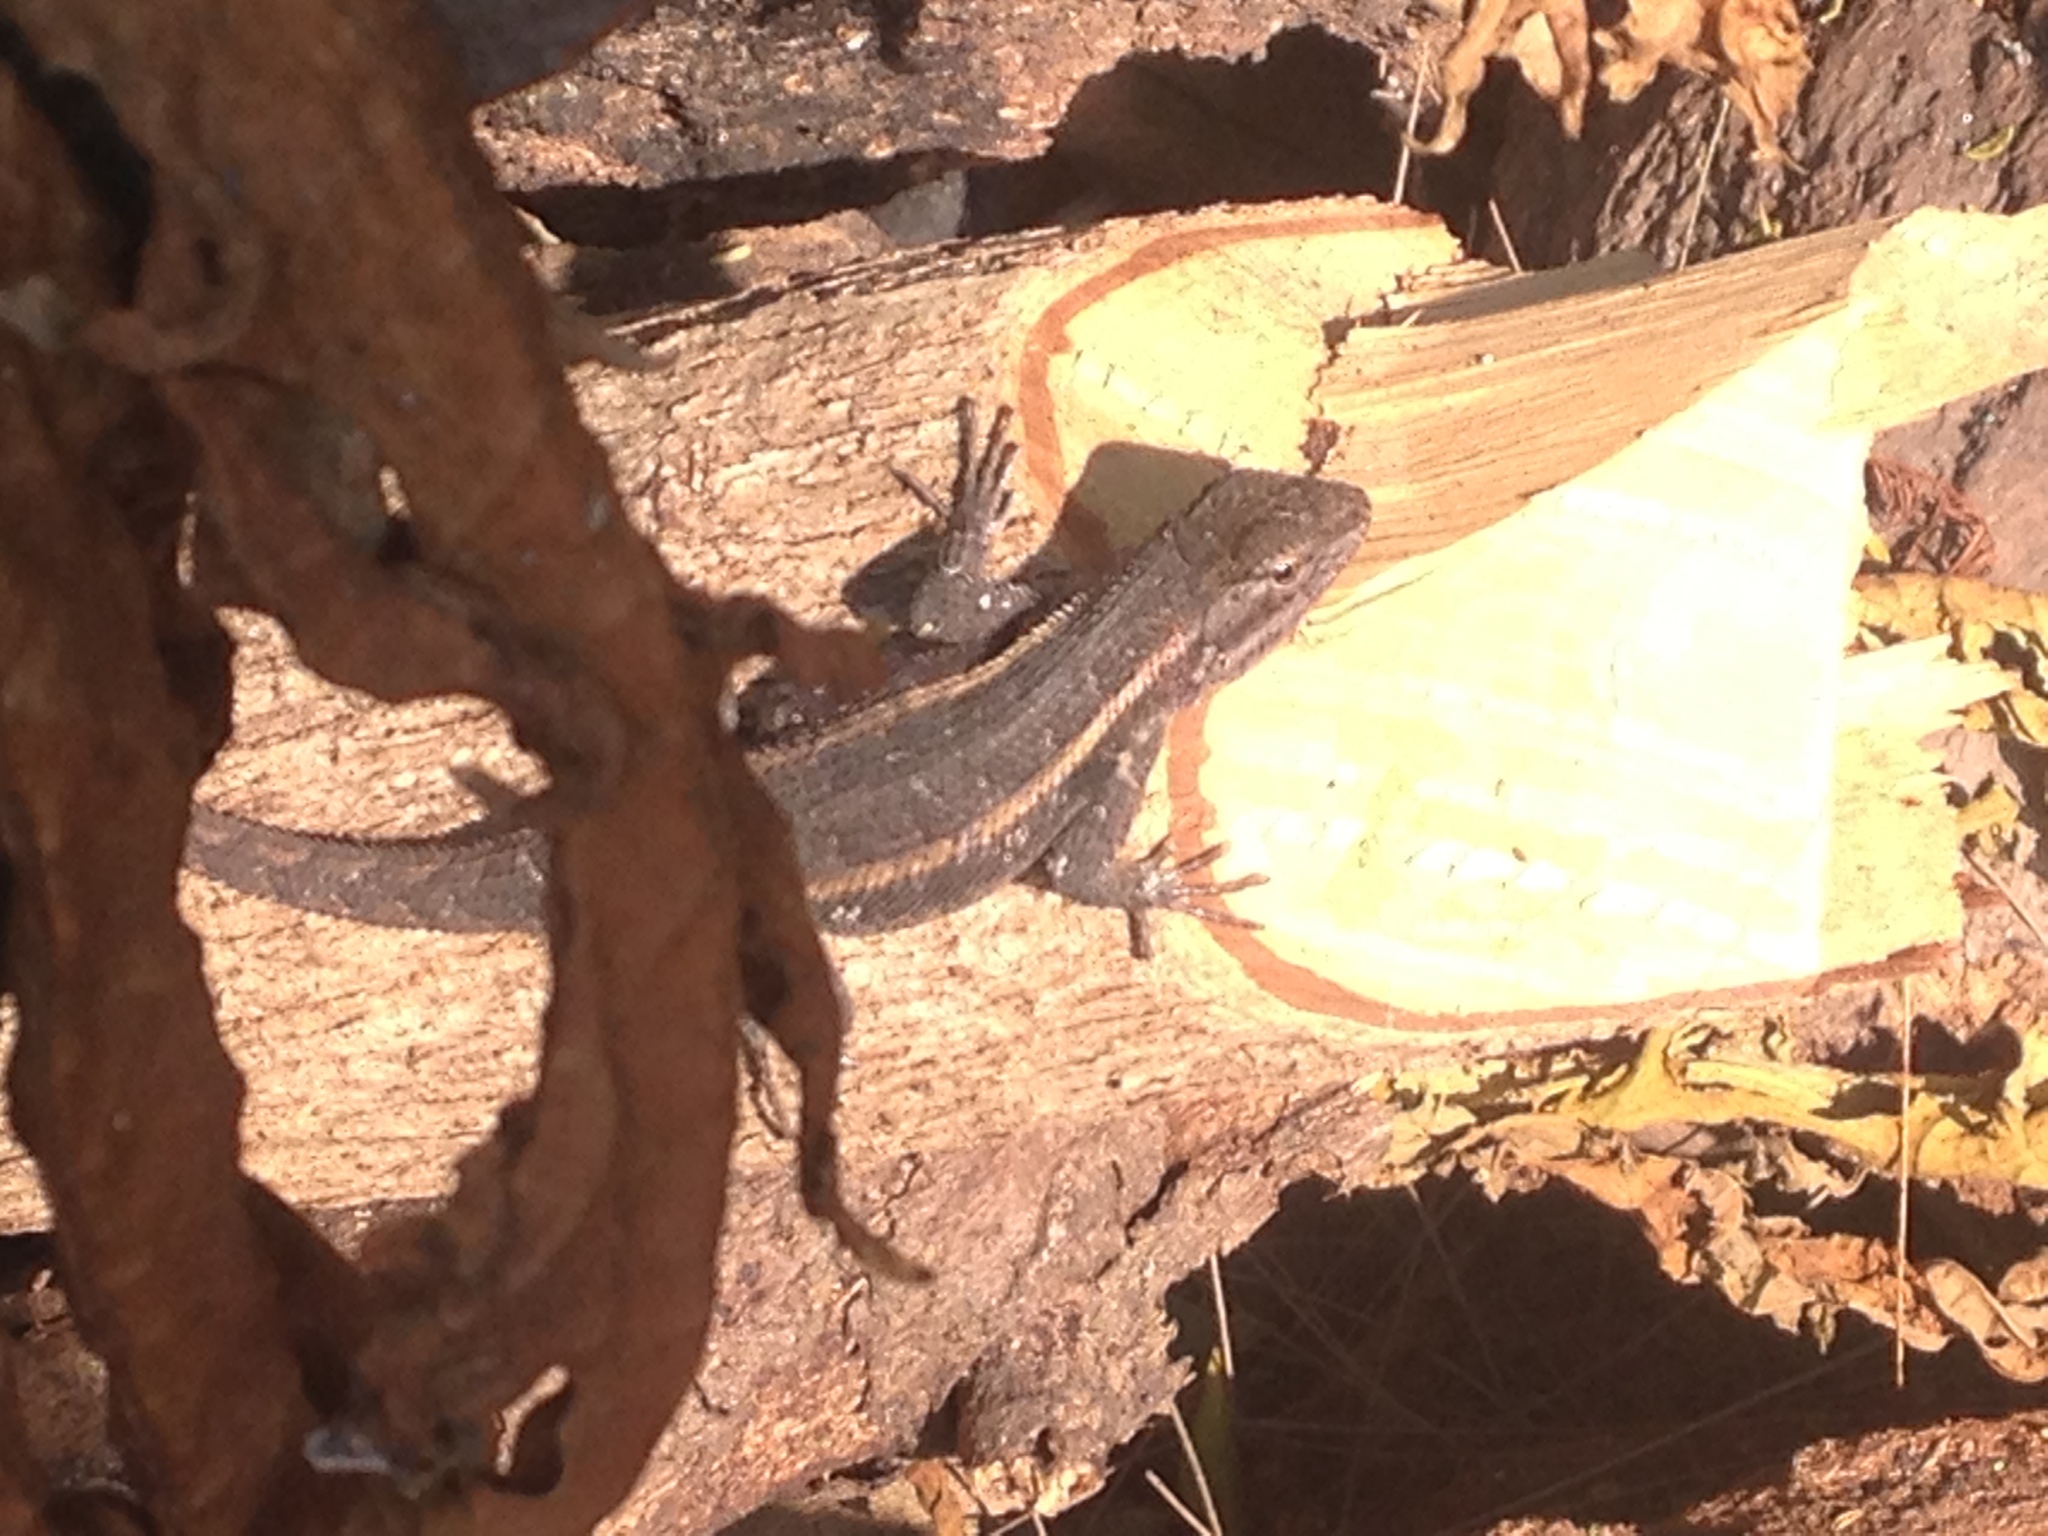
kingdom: Animalia
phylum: Chordata
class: Squamata
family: Phrynosomatidae
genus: Sceloporus
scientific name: Sceloporus variabilis
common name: Rosebelly lizard
